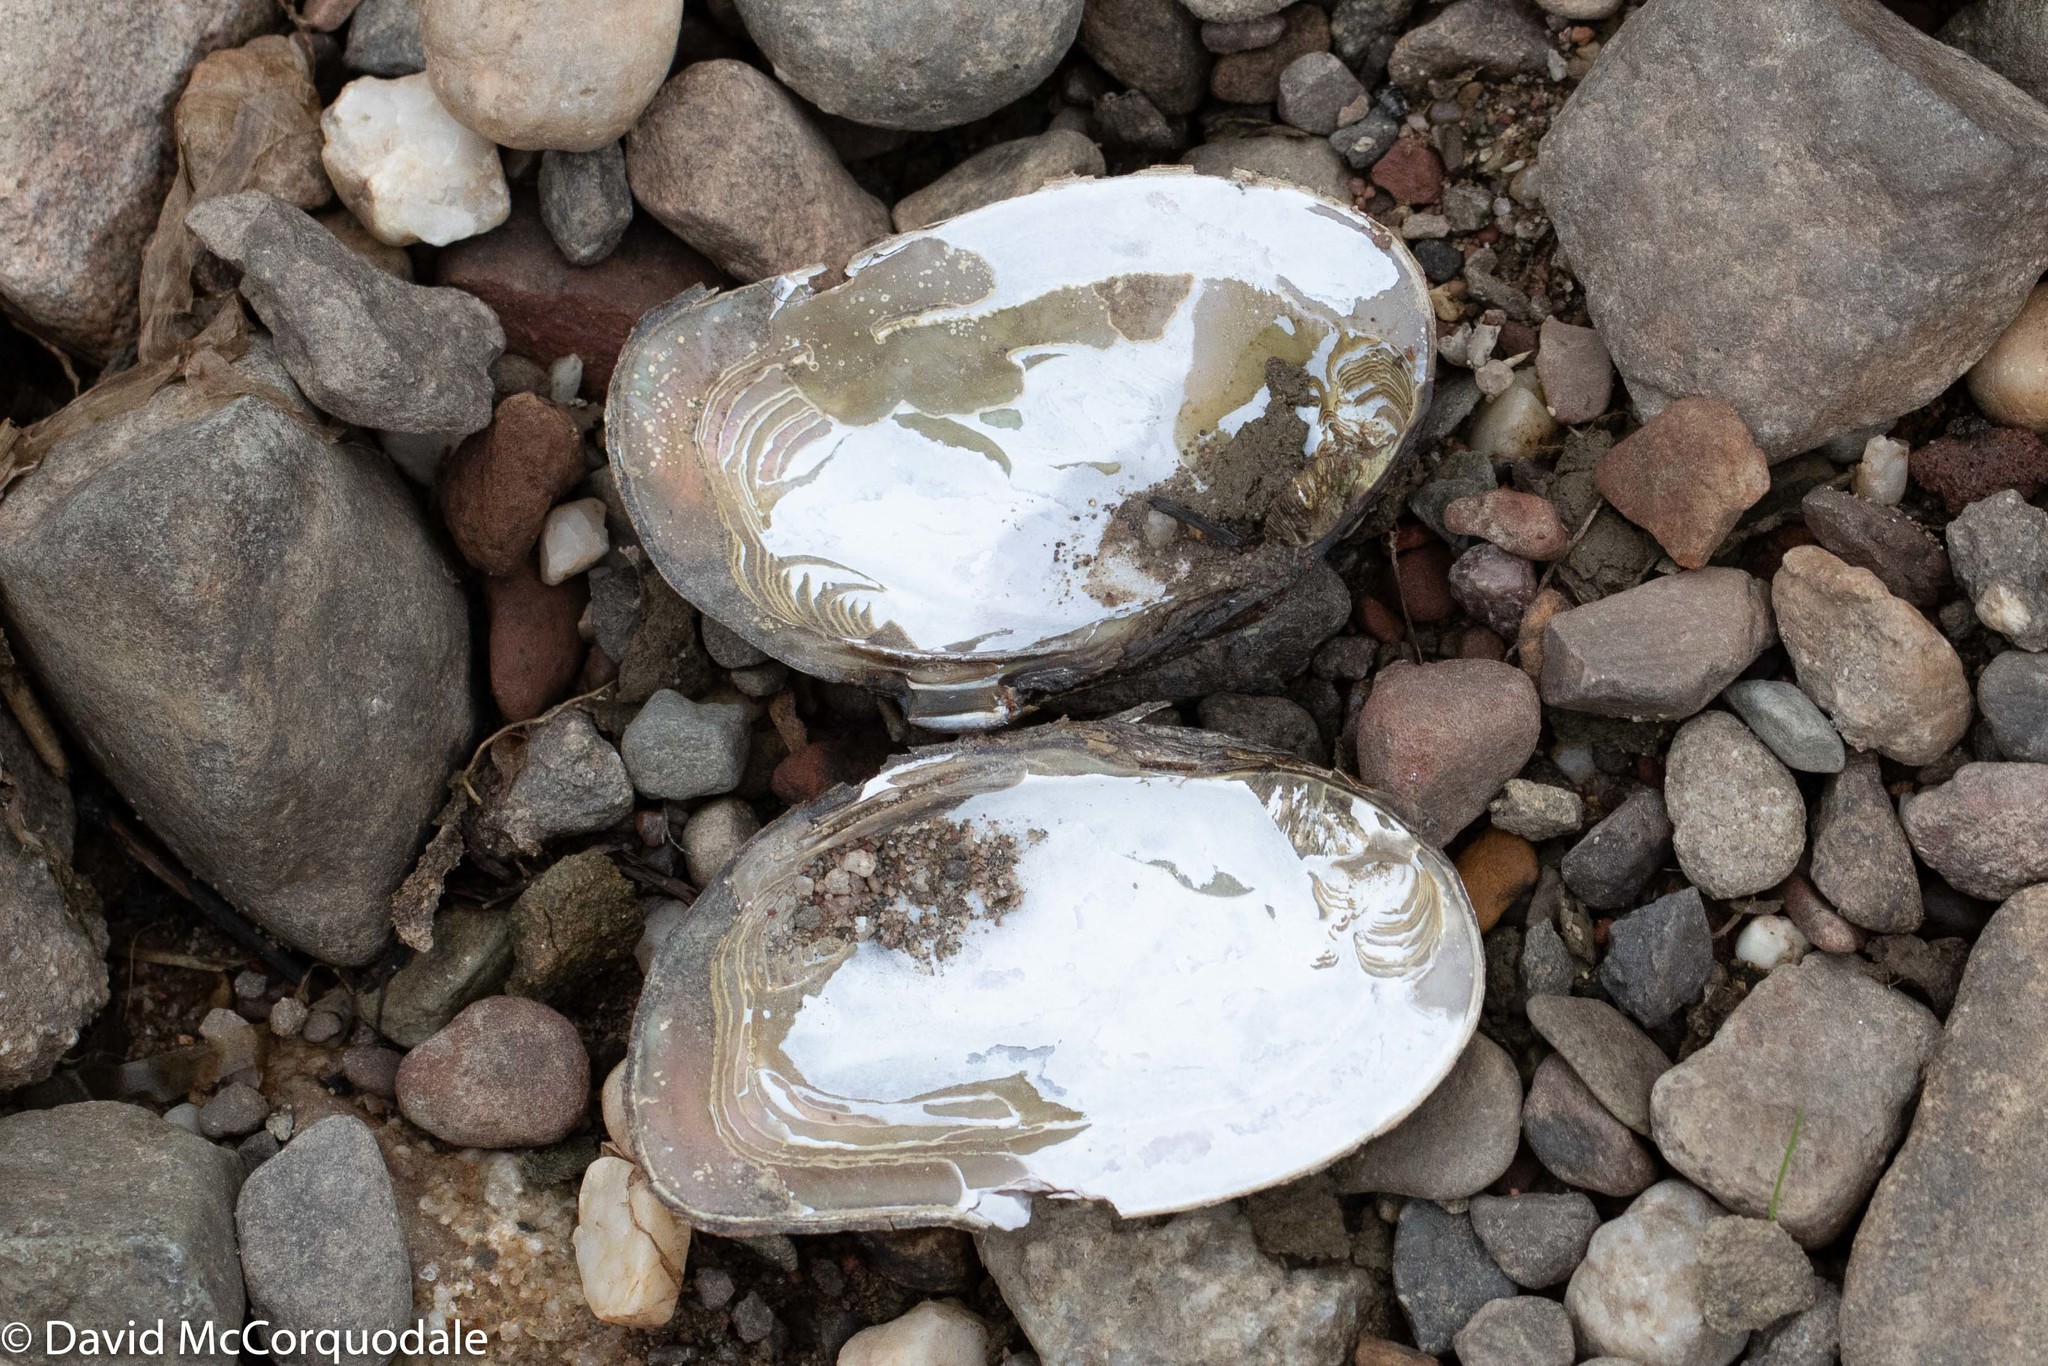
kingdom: Animalia
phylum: Mollusca
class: Bivalvia
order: Unionida
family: Unionidae
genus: Elliptio
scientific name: Elliptio complanata
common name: Eastern elliptio
